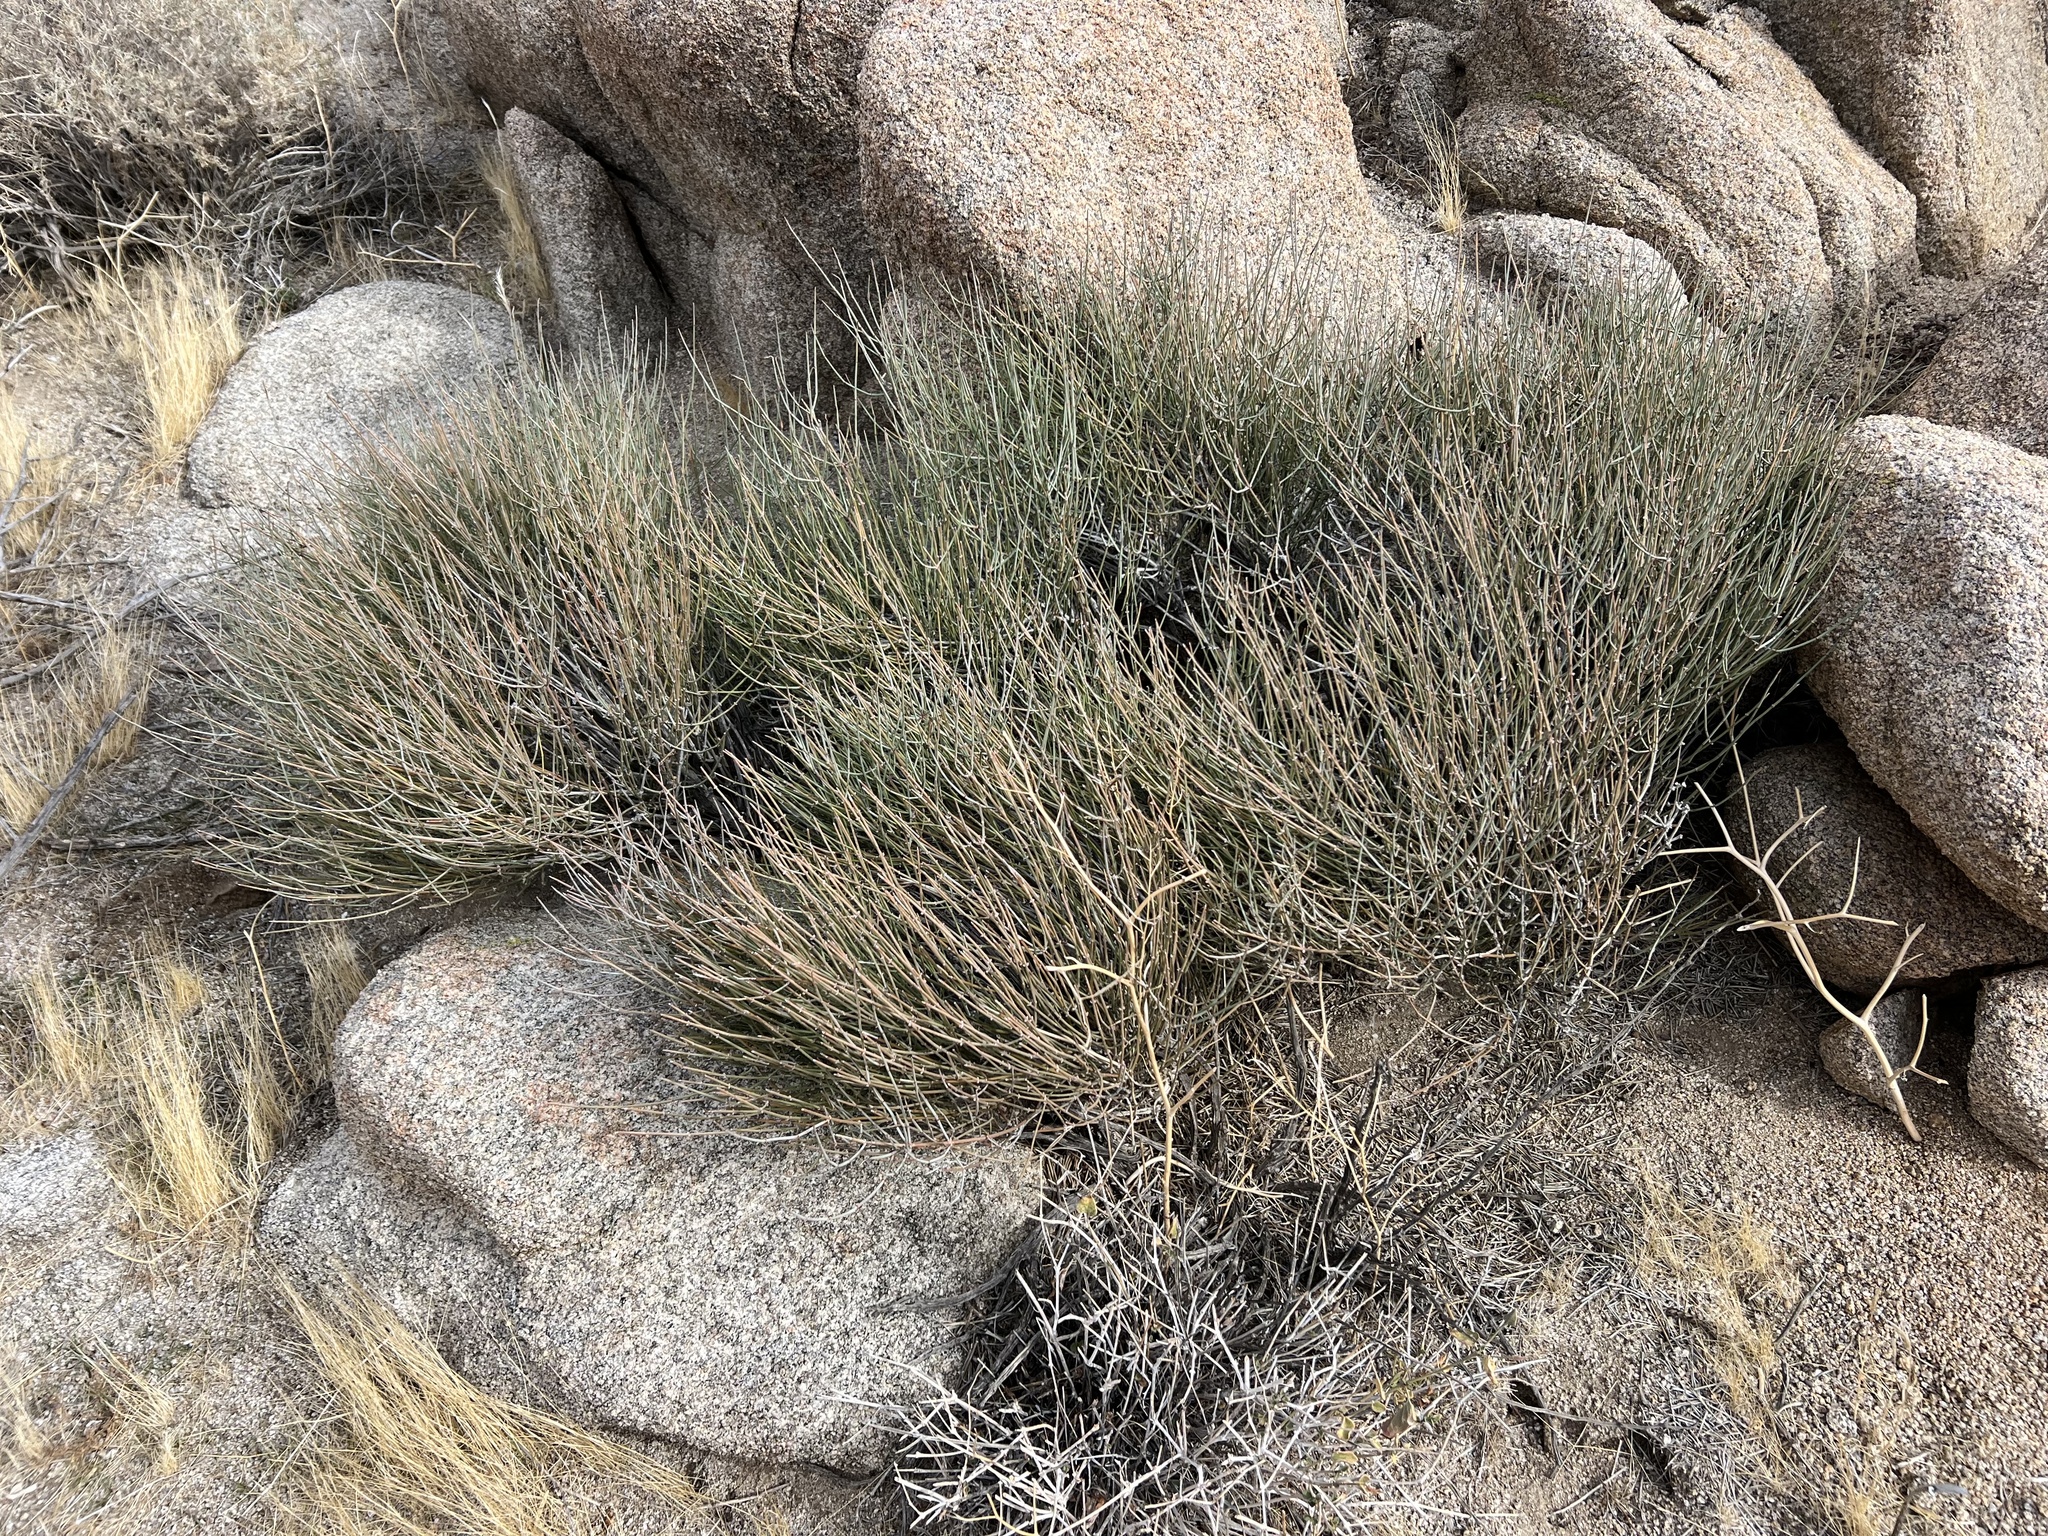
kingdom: Plantae
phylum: Tracheophyta
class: Gnetopsida
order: Ephedrales
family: Ephedraceae
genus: Ephedra
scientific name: Ephedra aspera
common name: Boundary ephedra
